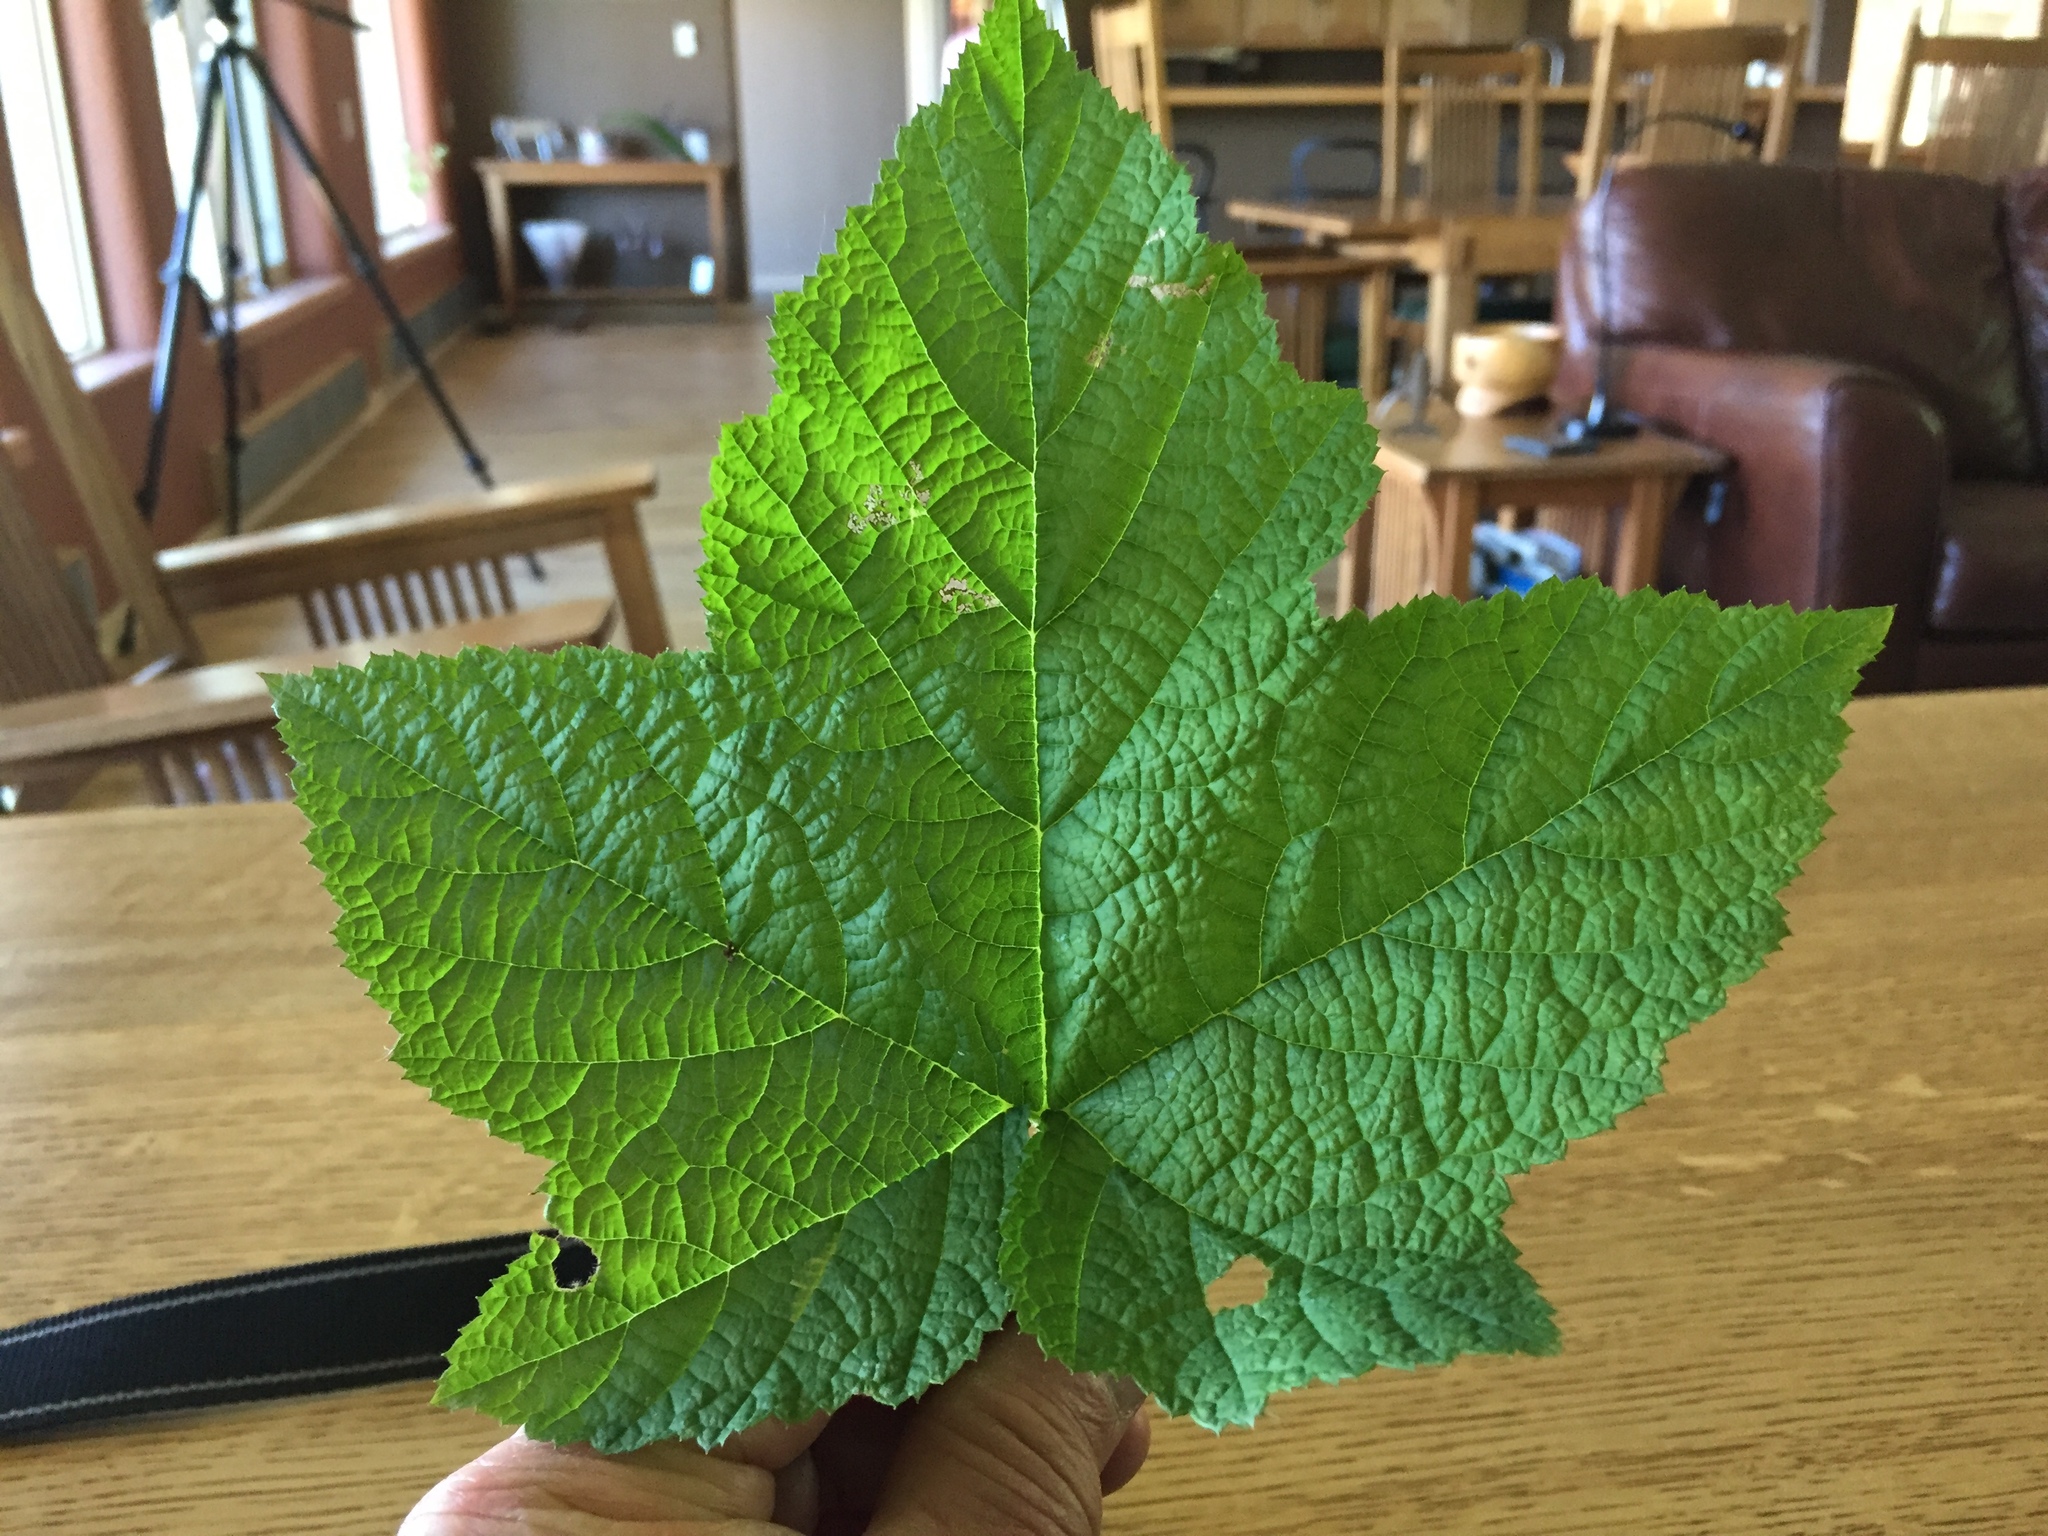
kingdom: Plantae
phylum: Tracheophyta
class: Magnoliopsida
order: Rosales
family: Rosaceae
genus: Rubus
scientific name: Rubus parviflorus
